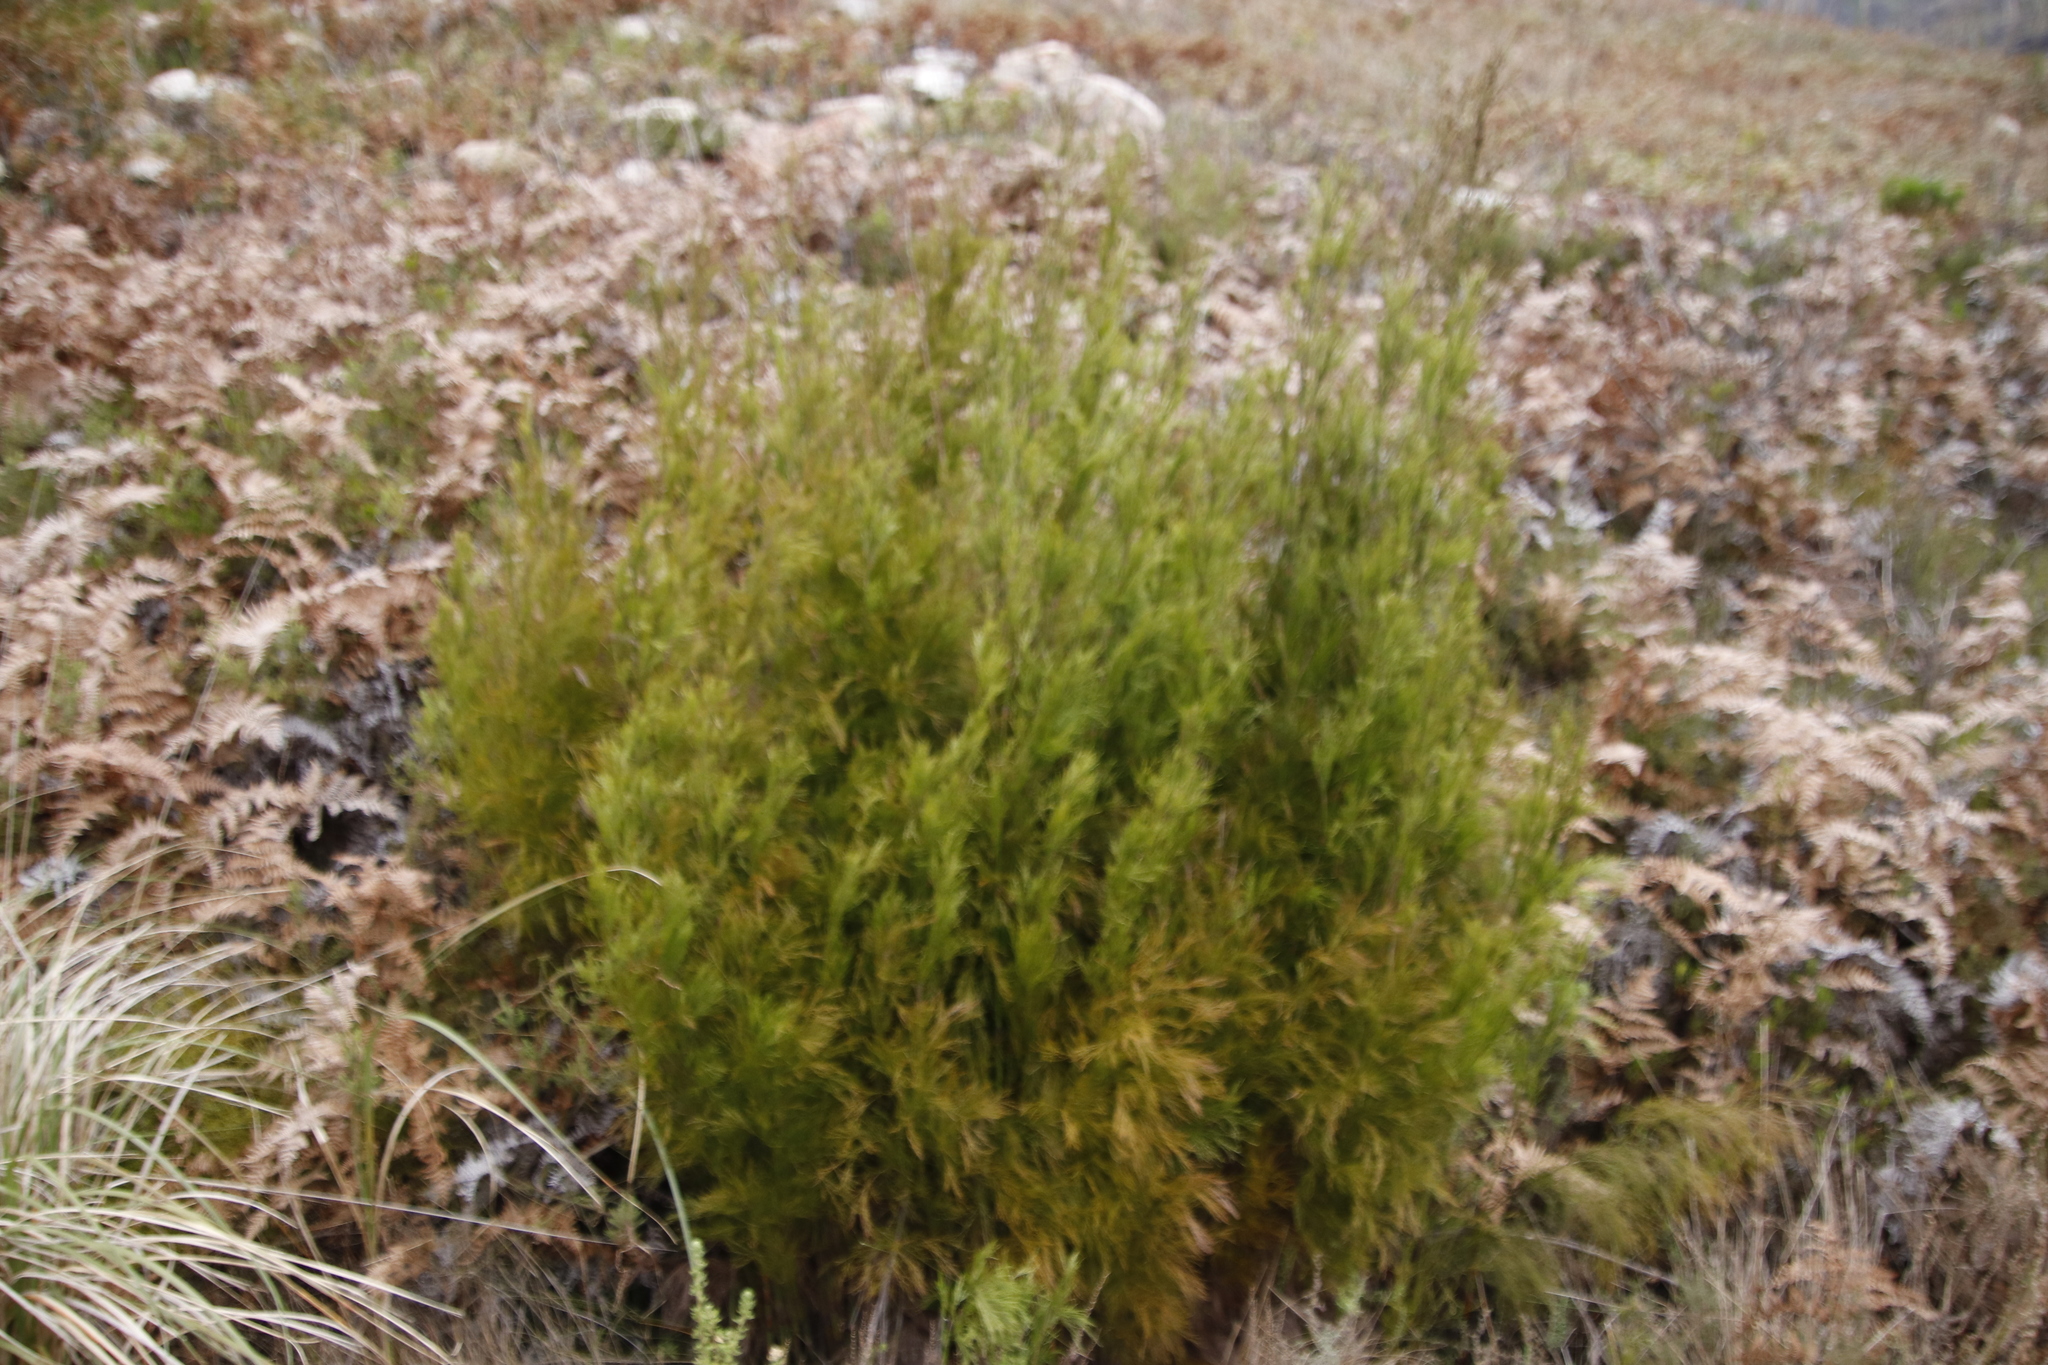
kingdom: Plantae
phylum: Tracheophyta
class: Liliopsida
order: Poales
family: Restionaceae
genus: Restio
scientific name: Restio paniculatus
